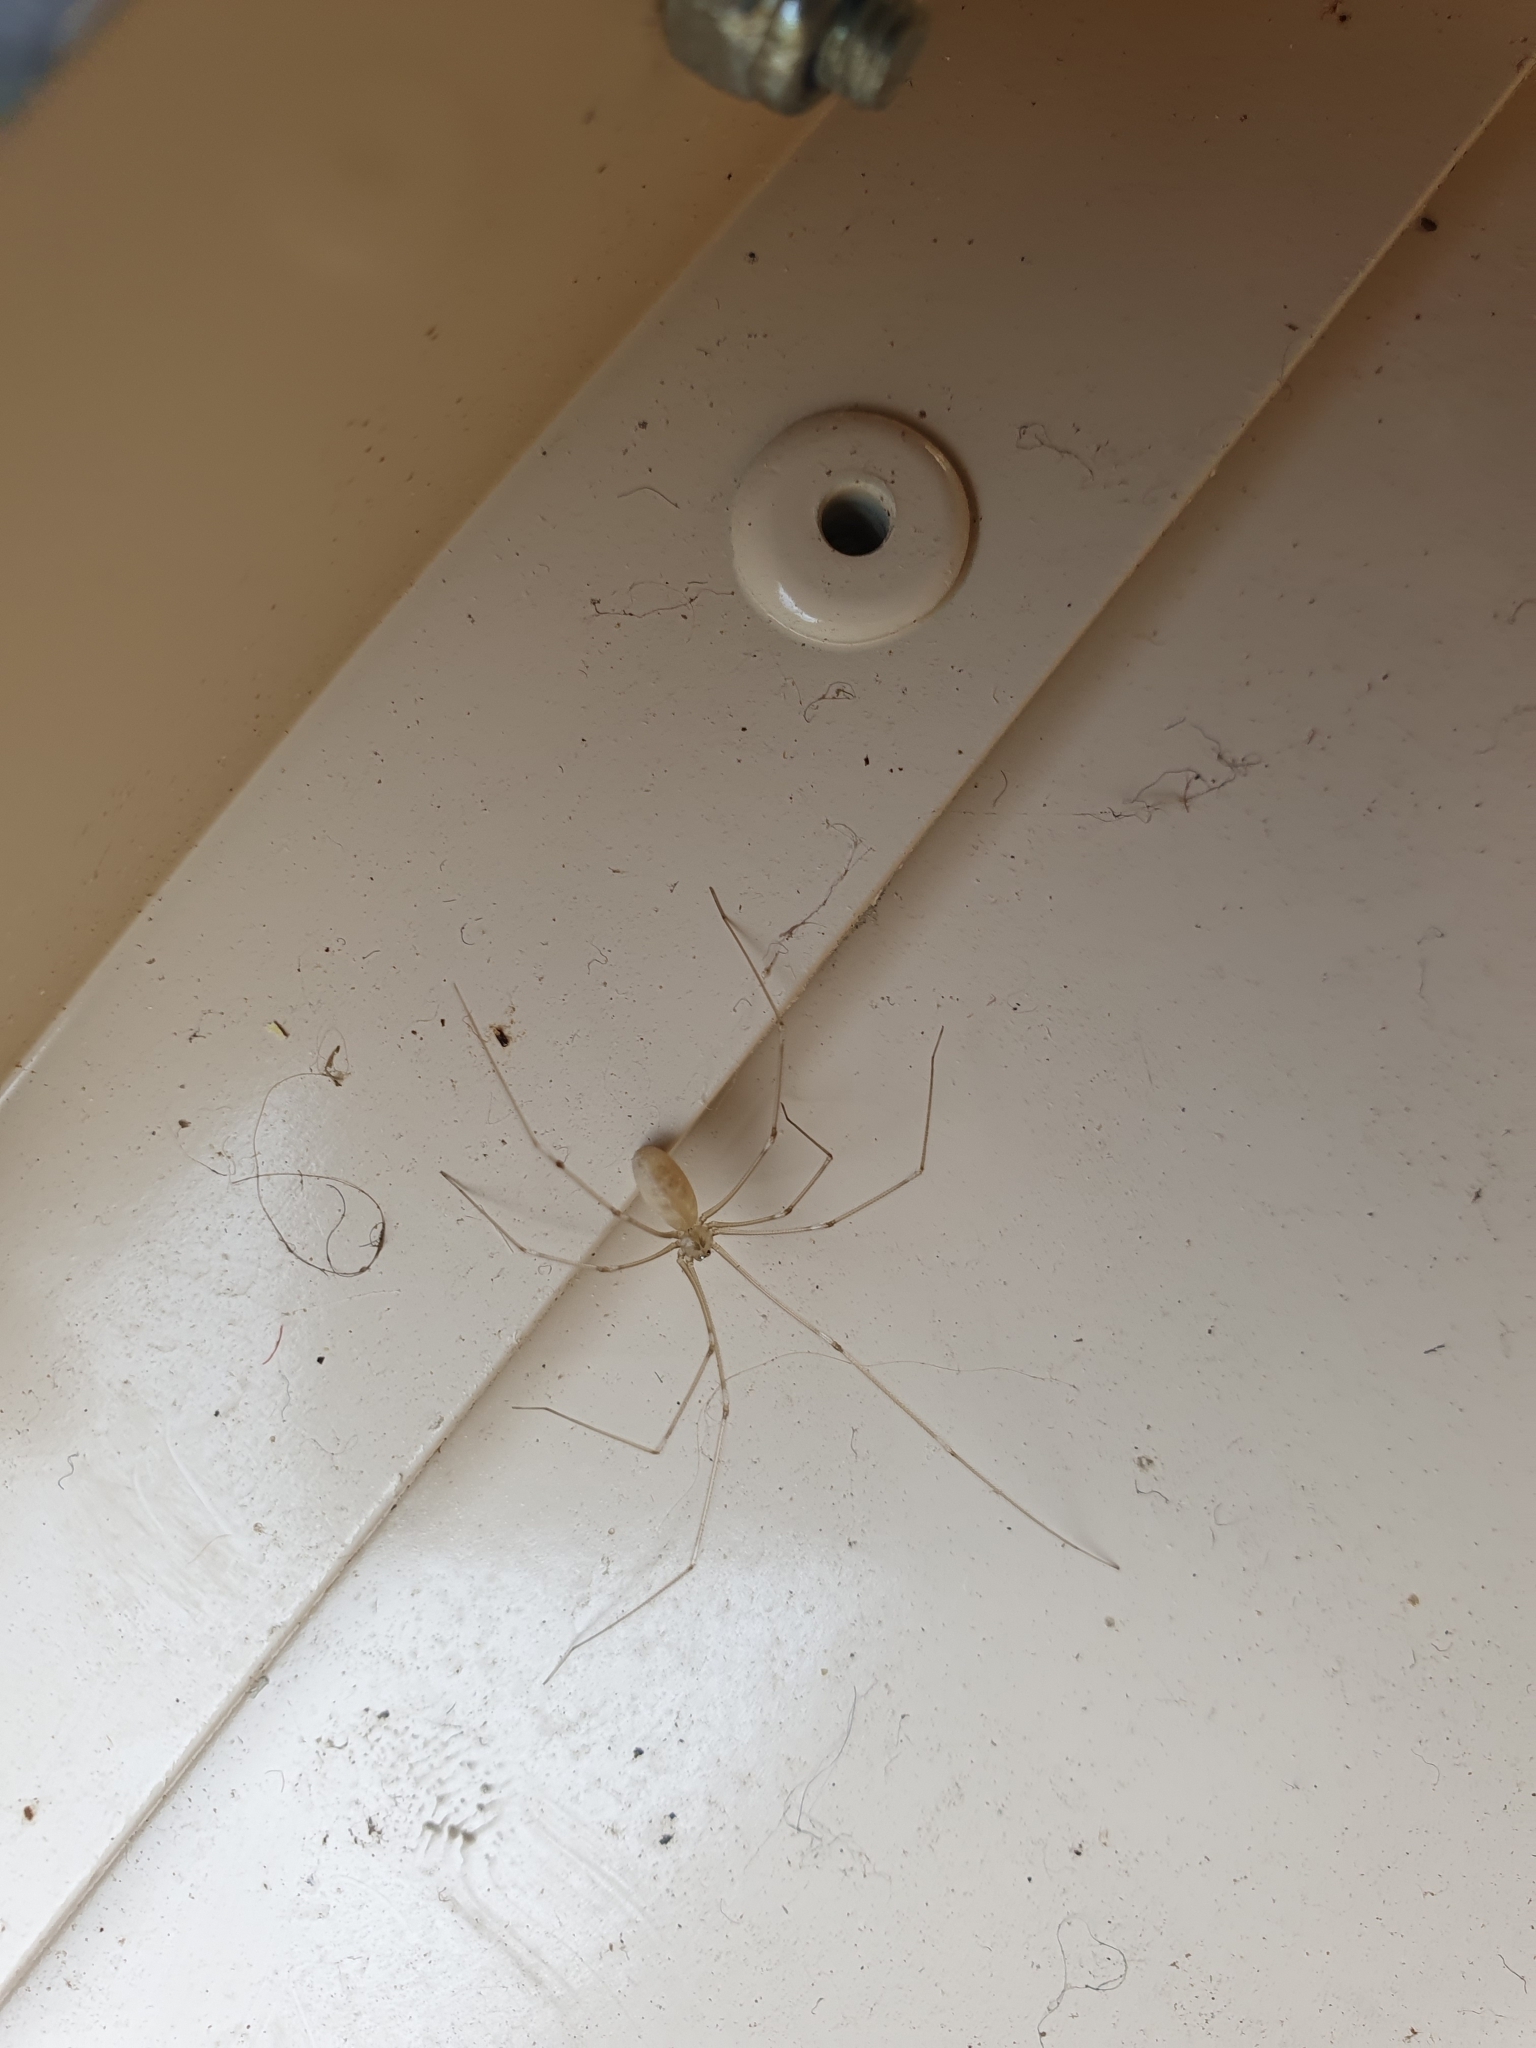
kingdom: Animalia
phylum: Arthropoda
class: Arachnida
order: Araneae
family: Pholcidae
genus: Pholcus
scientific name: Pholcus phalangioides
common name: Longbodied cellar spider
